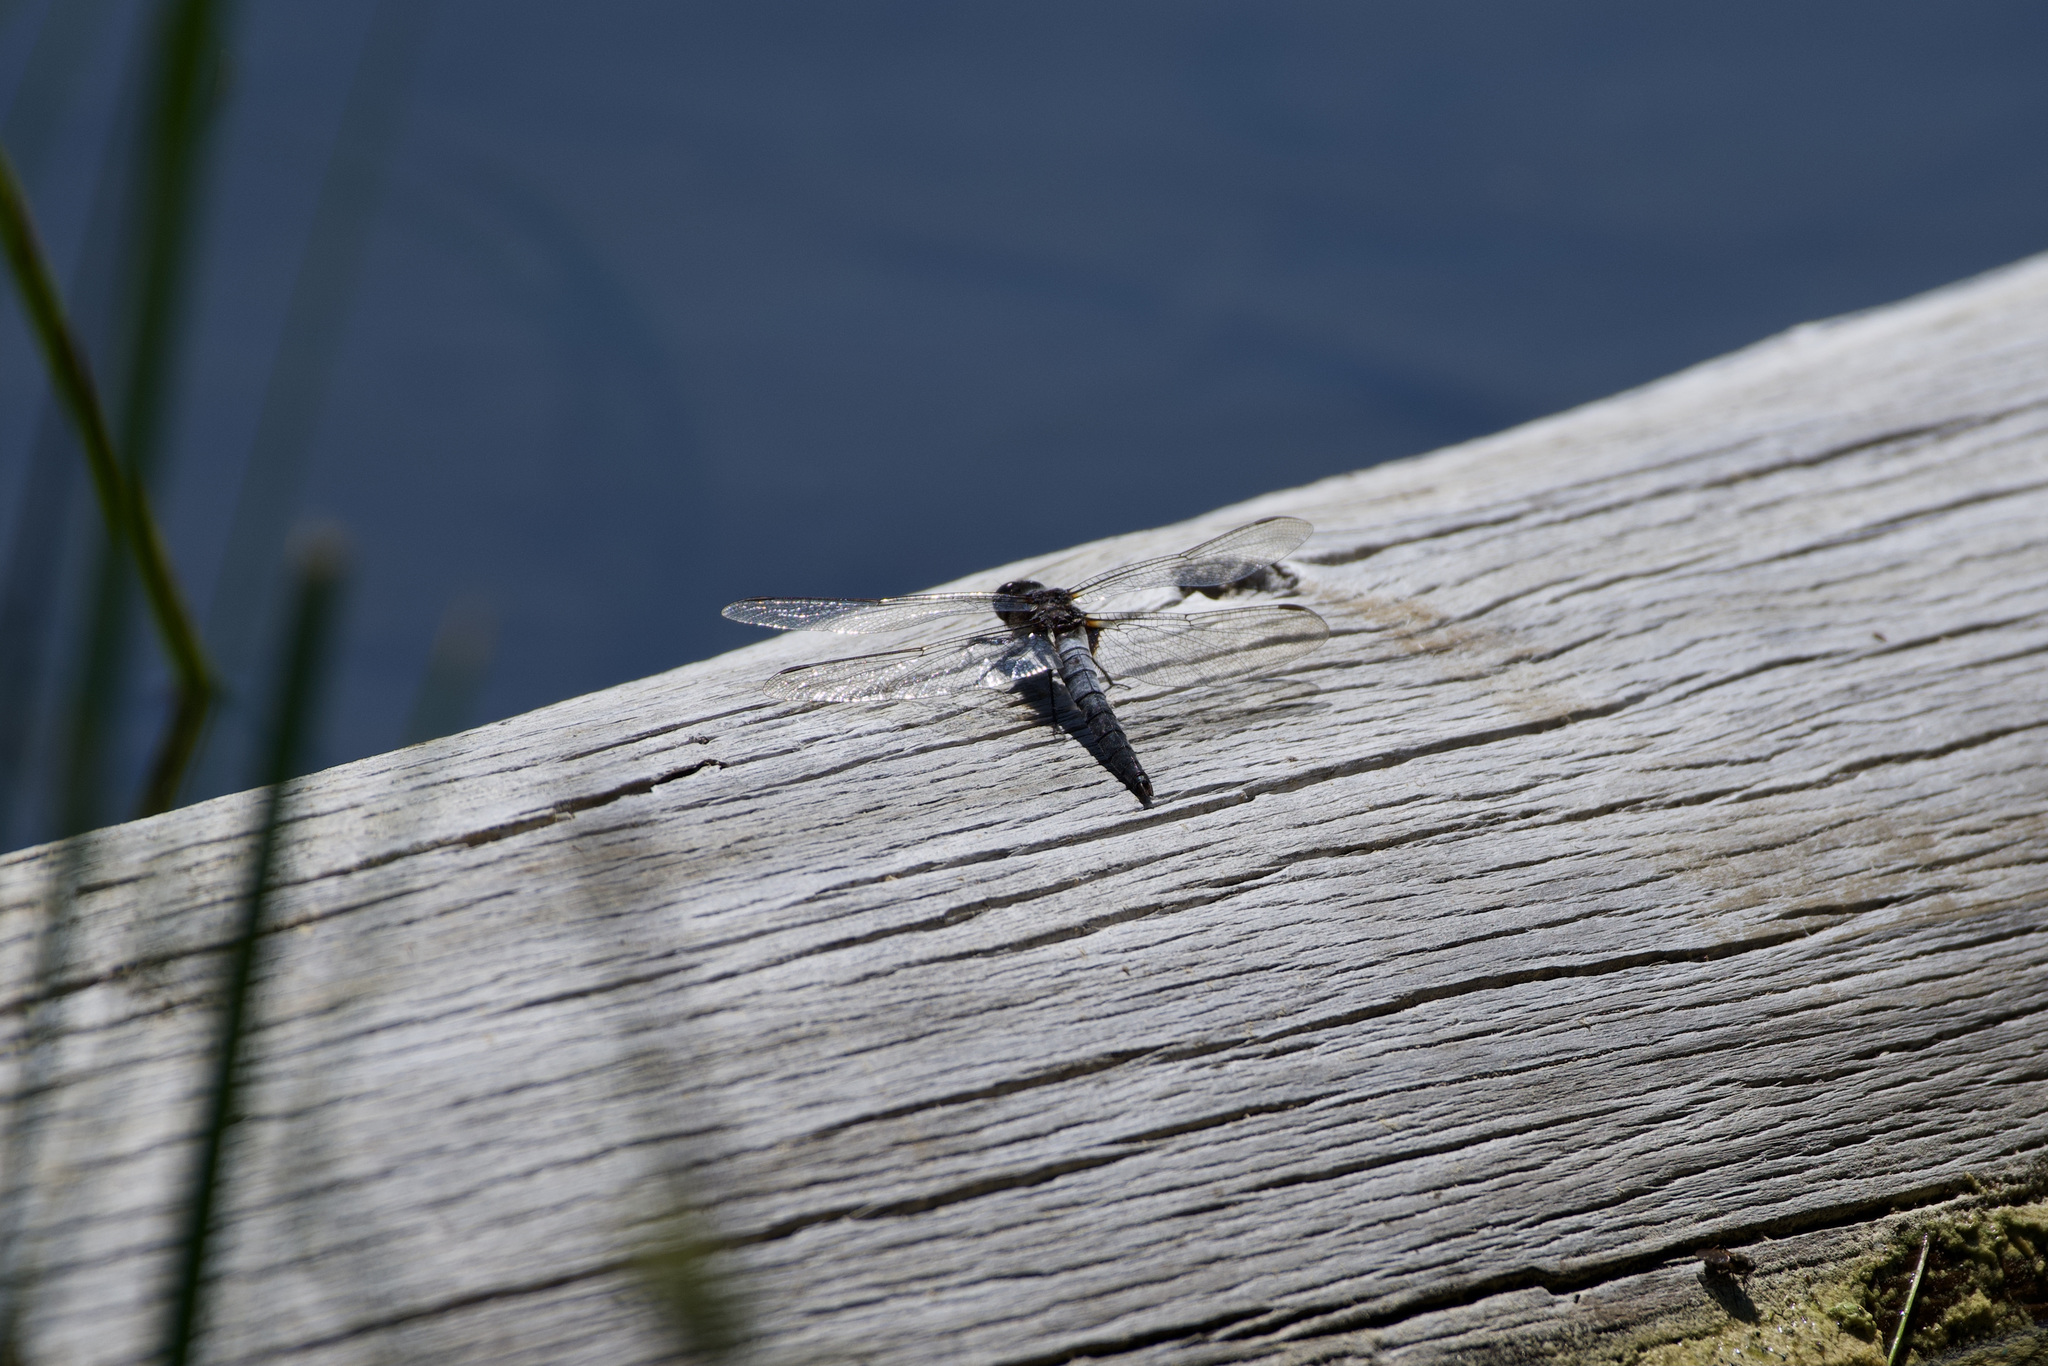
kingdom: Animalia
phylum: Arthropoda
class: Insecta
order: Odonata
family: Libellulidae
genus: Ladona
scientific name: Ladona julia
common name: Chalk-fronted corporal
